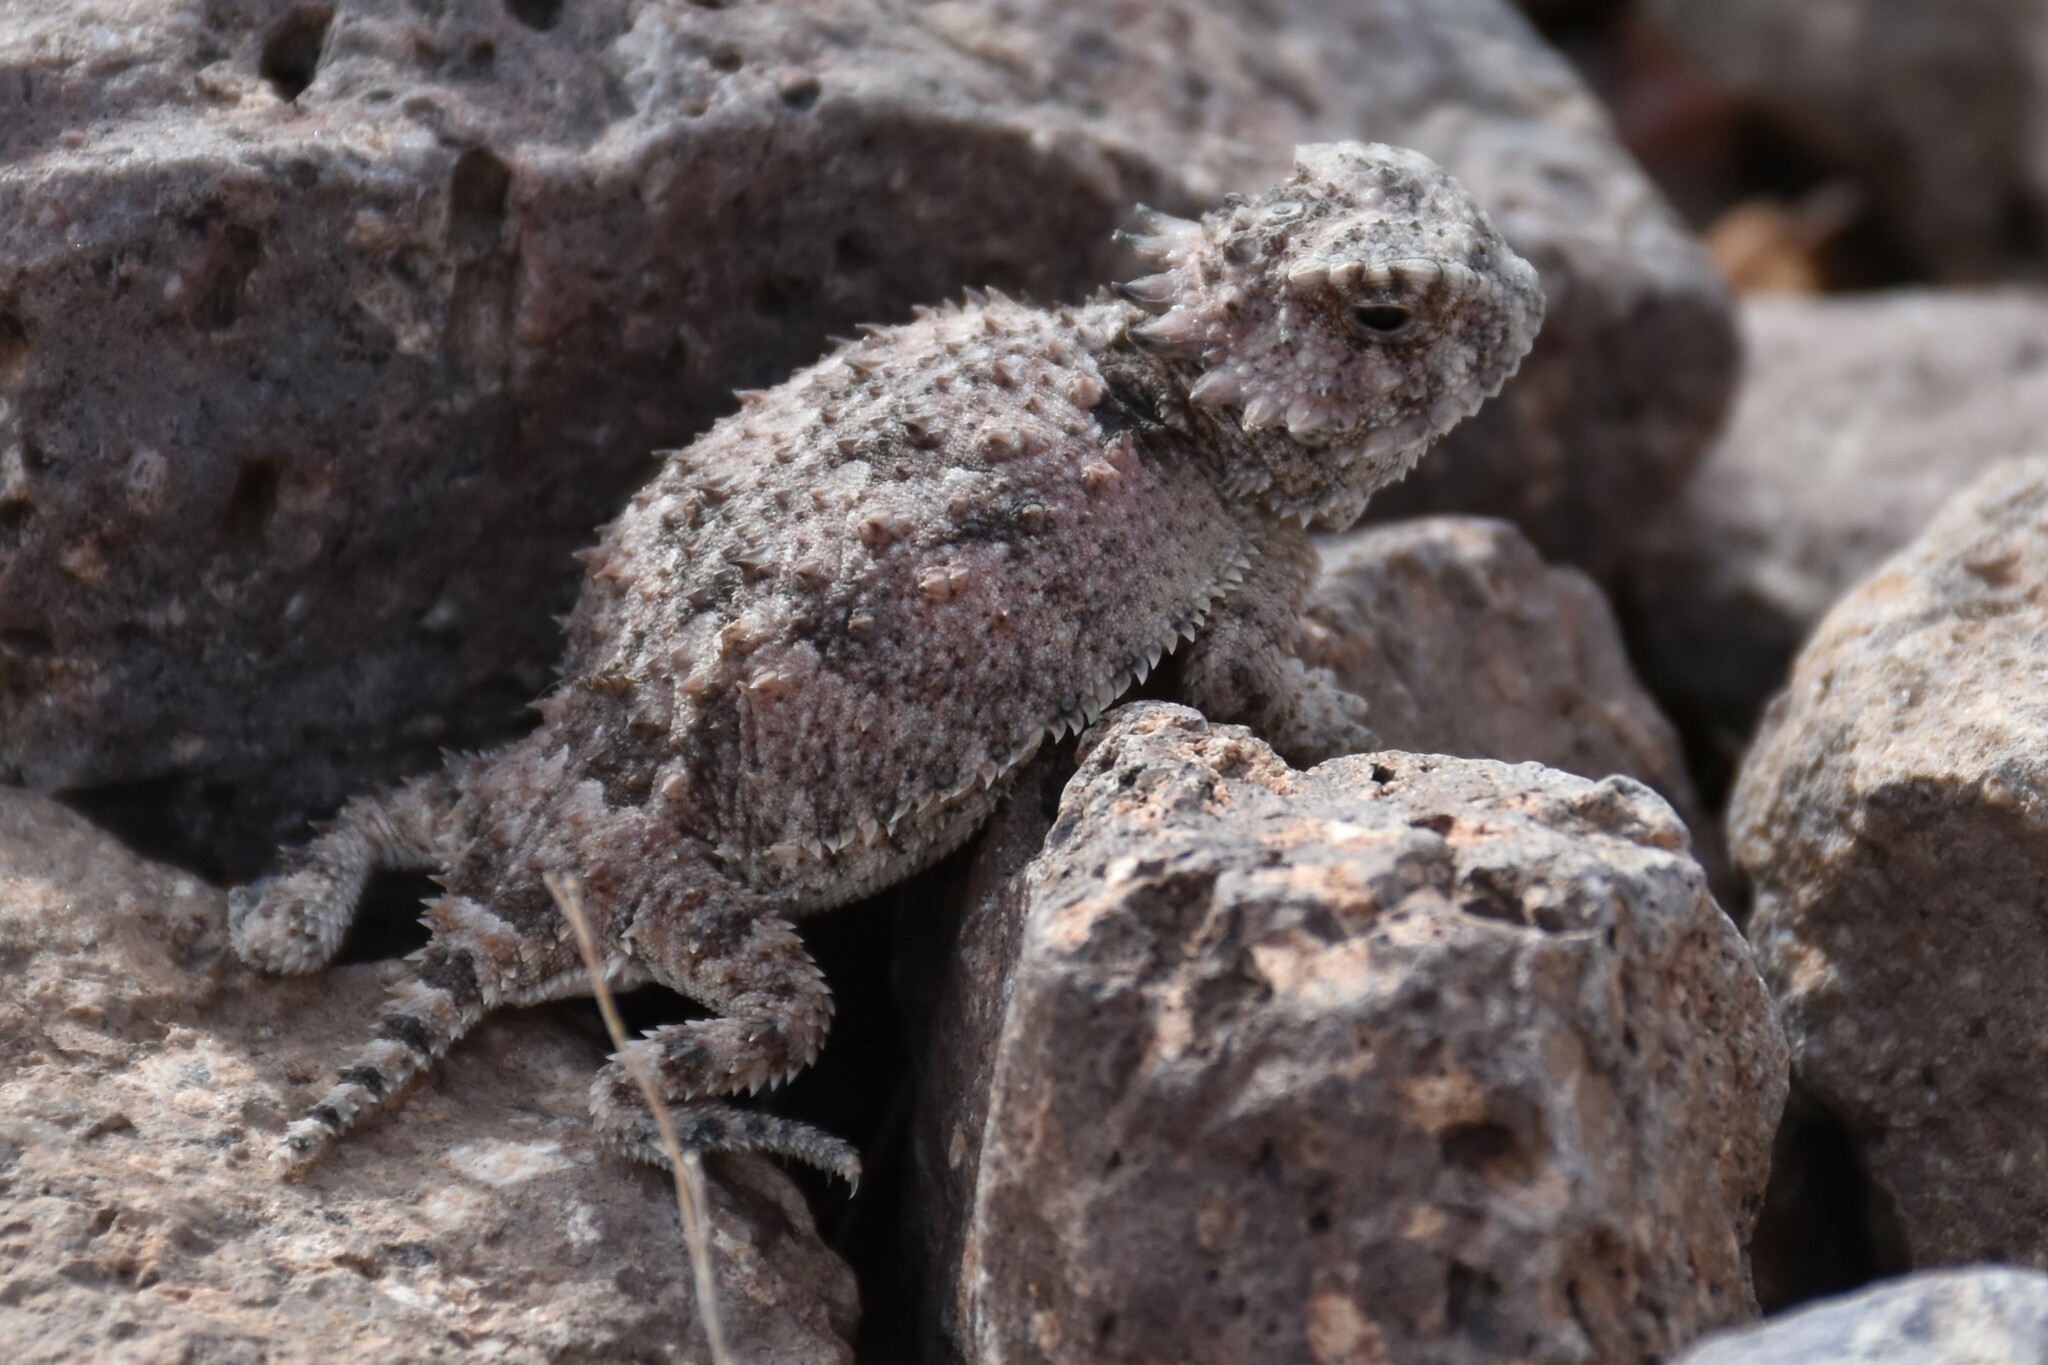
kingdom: Animalia
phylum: Chordata
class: Squamata
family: Phrynosomatidae
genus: Phrynosoma
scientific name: Phrynosoma solare
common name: Regal horned lizard
